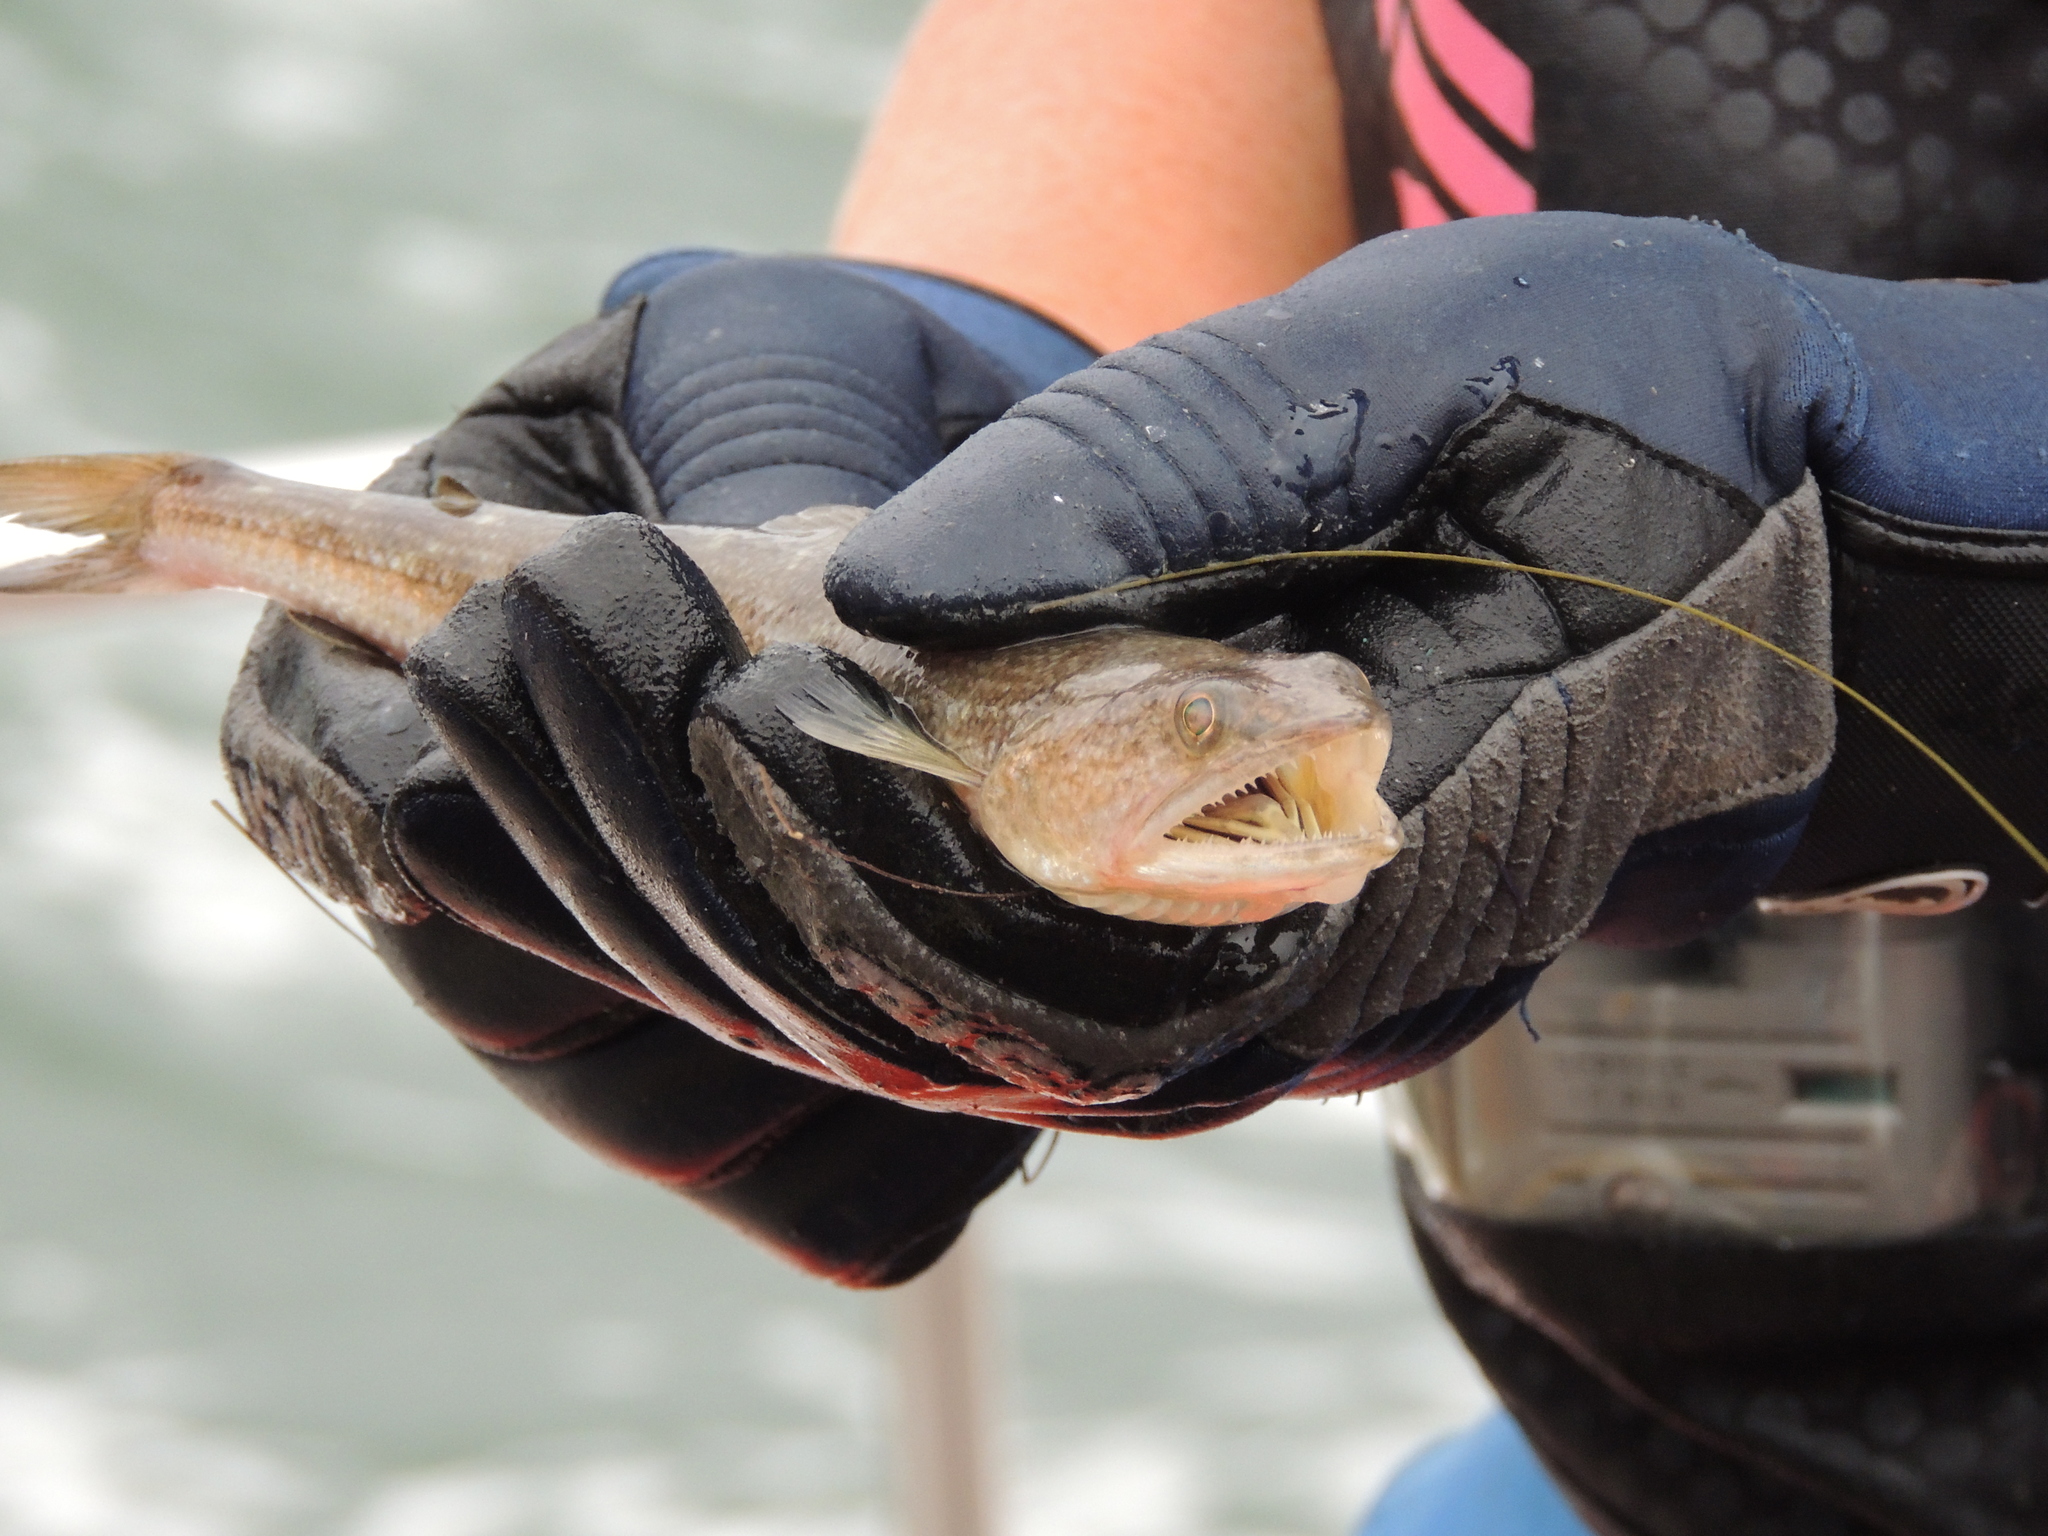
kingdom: Animalia
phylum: Chordata
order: Aulopiformes
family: Synodontidae
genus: Synodus
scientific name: Synodus foetens
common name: Inshore lizardfish
